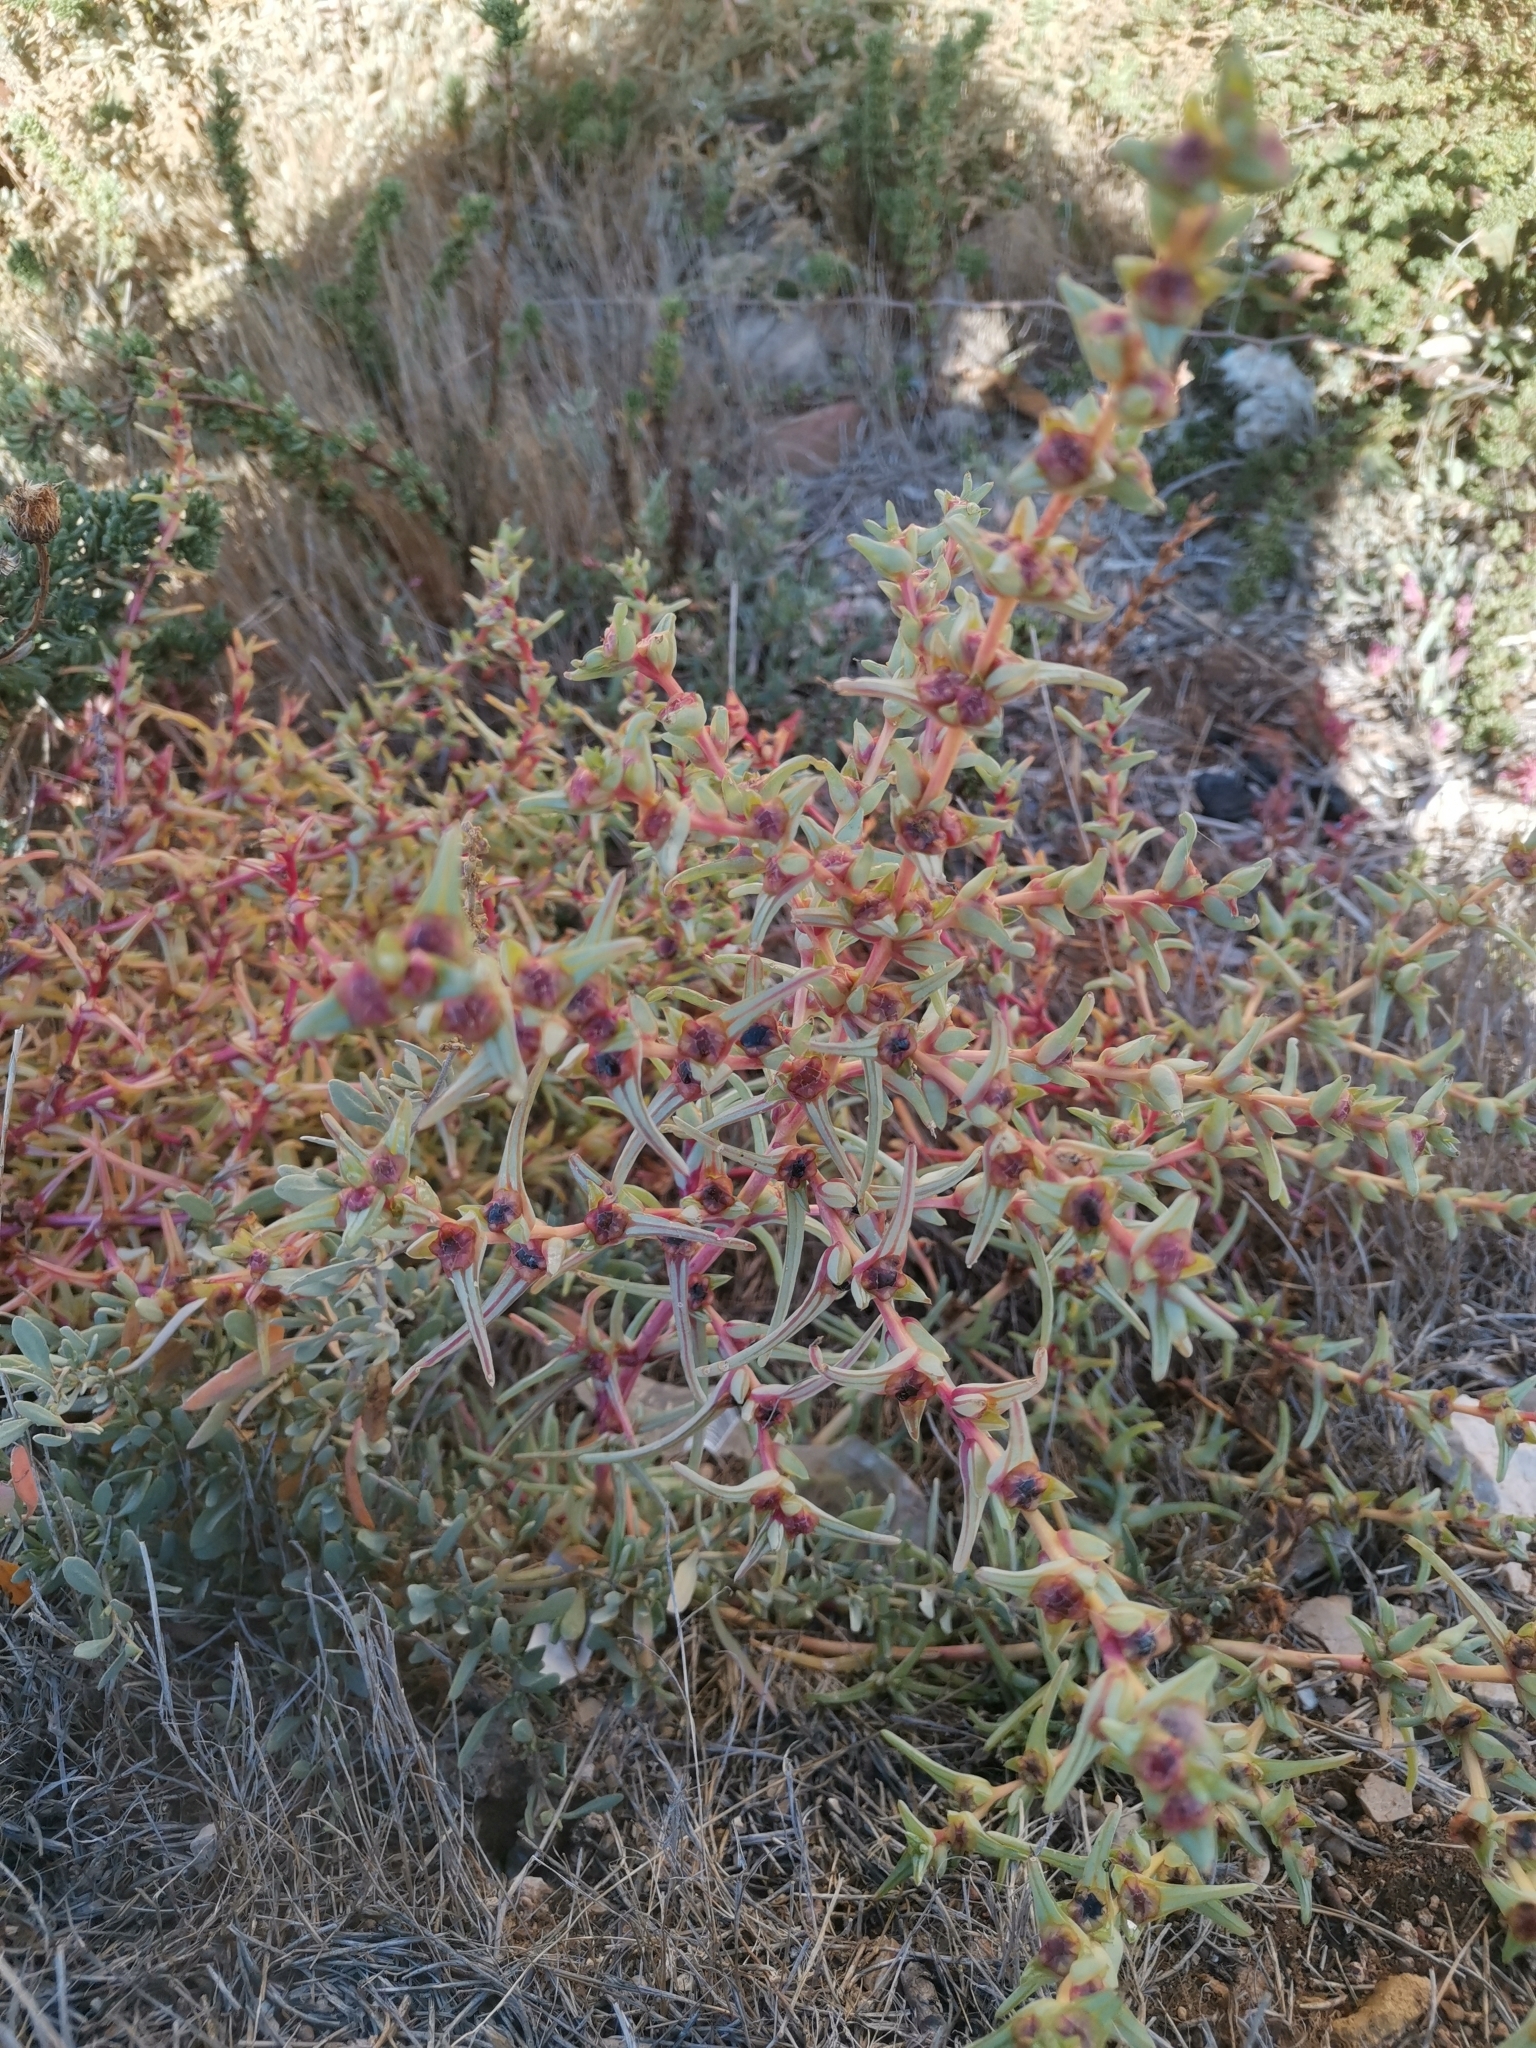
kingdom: Plantae
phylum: Tracheophyta
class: Magnoliopsida
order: Caryophyllales
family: Amaranthaceae
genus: Salsola
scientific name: Salsola soda
